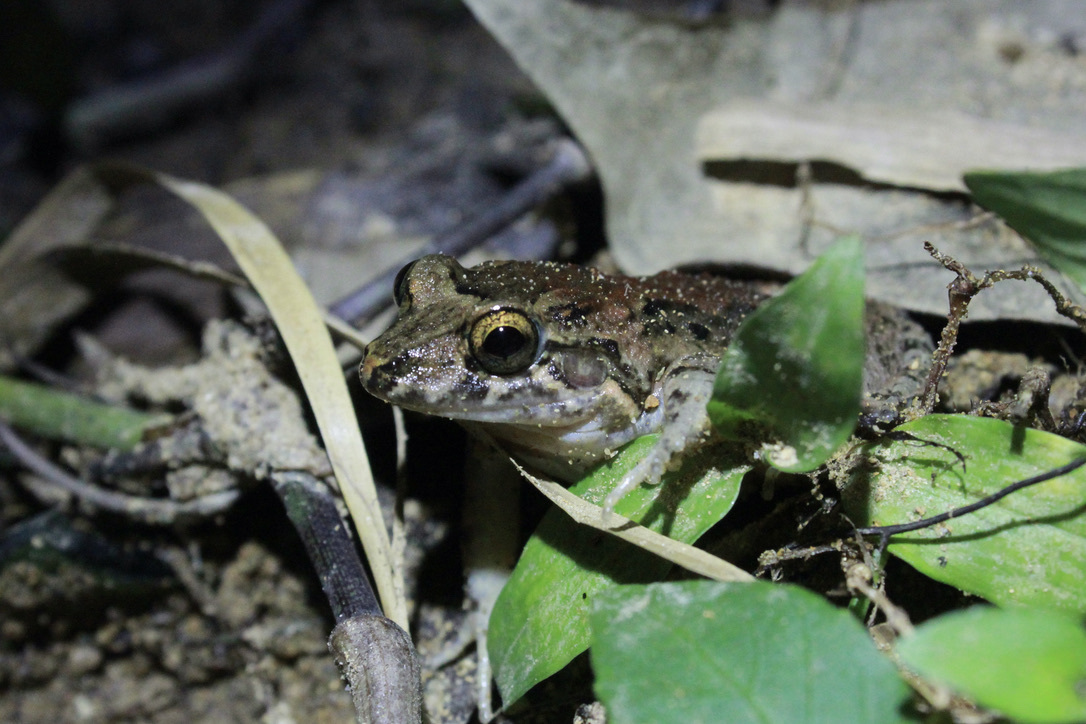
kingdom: Animalia
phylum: Chordata
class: Amphibia
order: Anura
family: Leptodactylidae
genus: Leptodactylus
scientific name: Leptodactylus validus
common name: Smooth-skinned ditch frog
